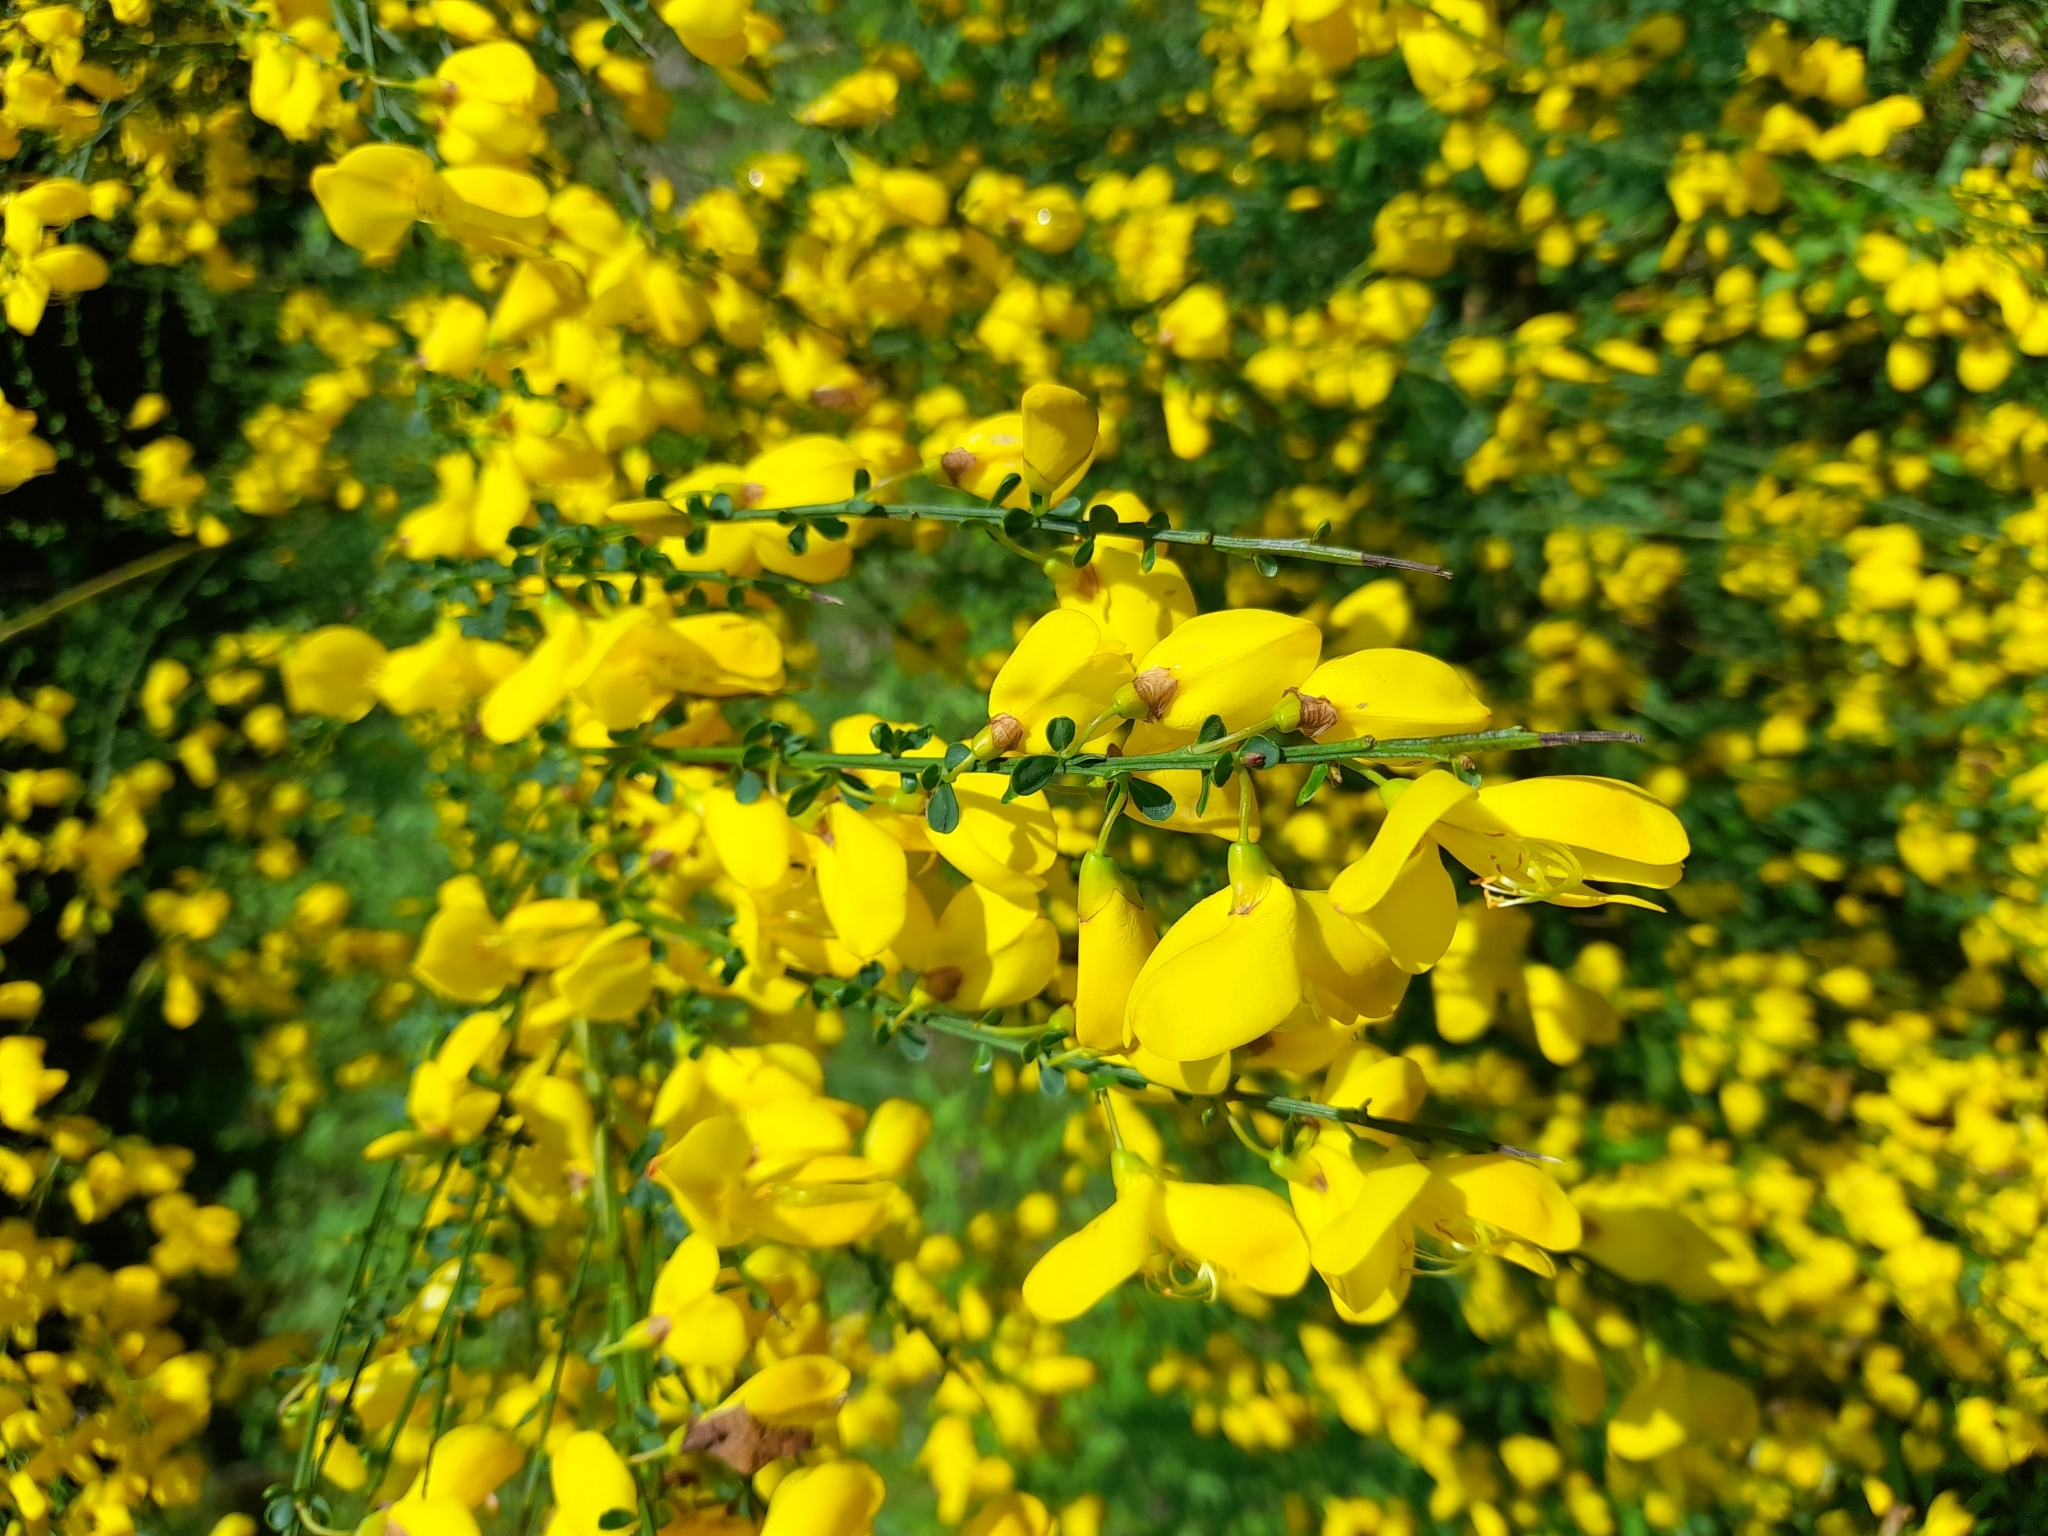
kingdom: Plantae
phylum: Tracheophyta
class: Magnoliopsida
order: Fabales
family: Fabaceae
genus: Cytisus
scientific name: Cytisus scoparius
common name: Scotch broom
